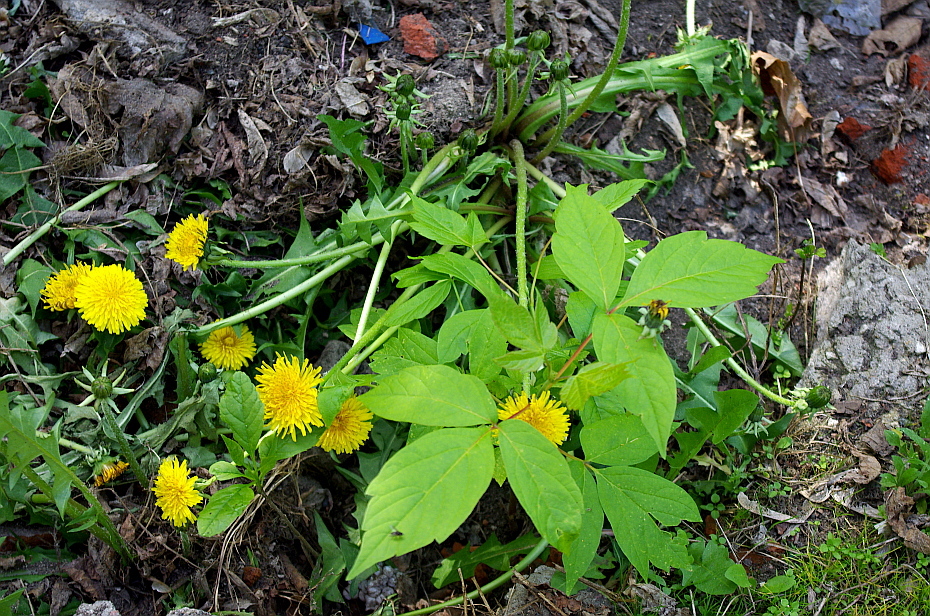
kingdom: Plantae
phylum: Tracheophyta
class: Magnoliopsida
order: Asterales
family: Asteraceae
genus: Taraxacum
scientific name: Taraxacum officinale
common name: Common dandelion
